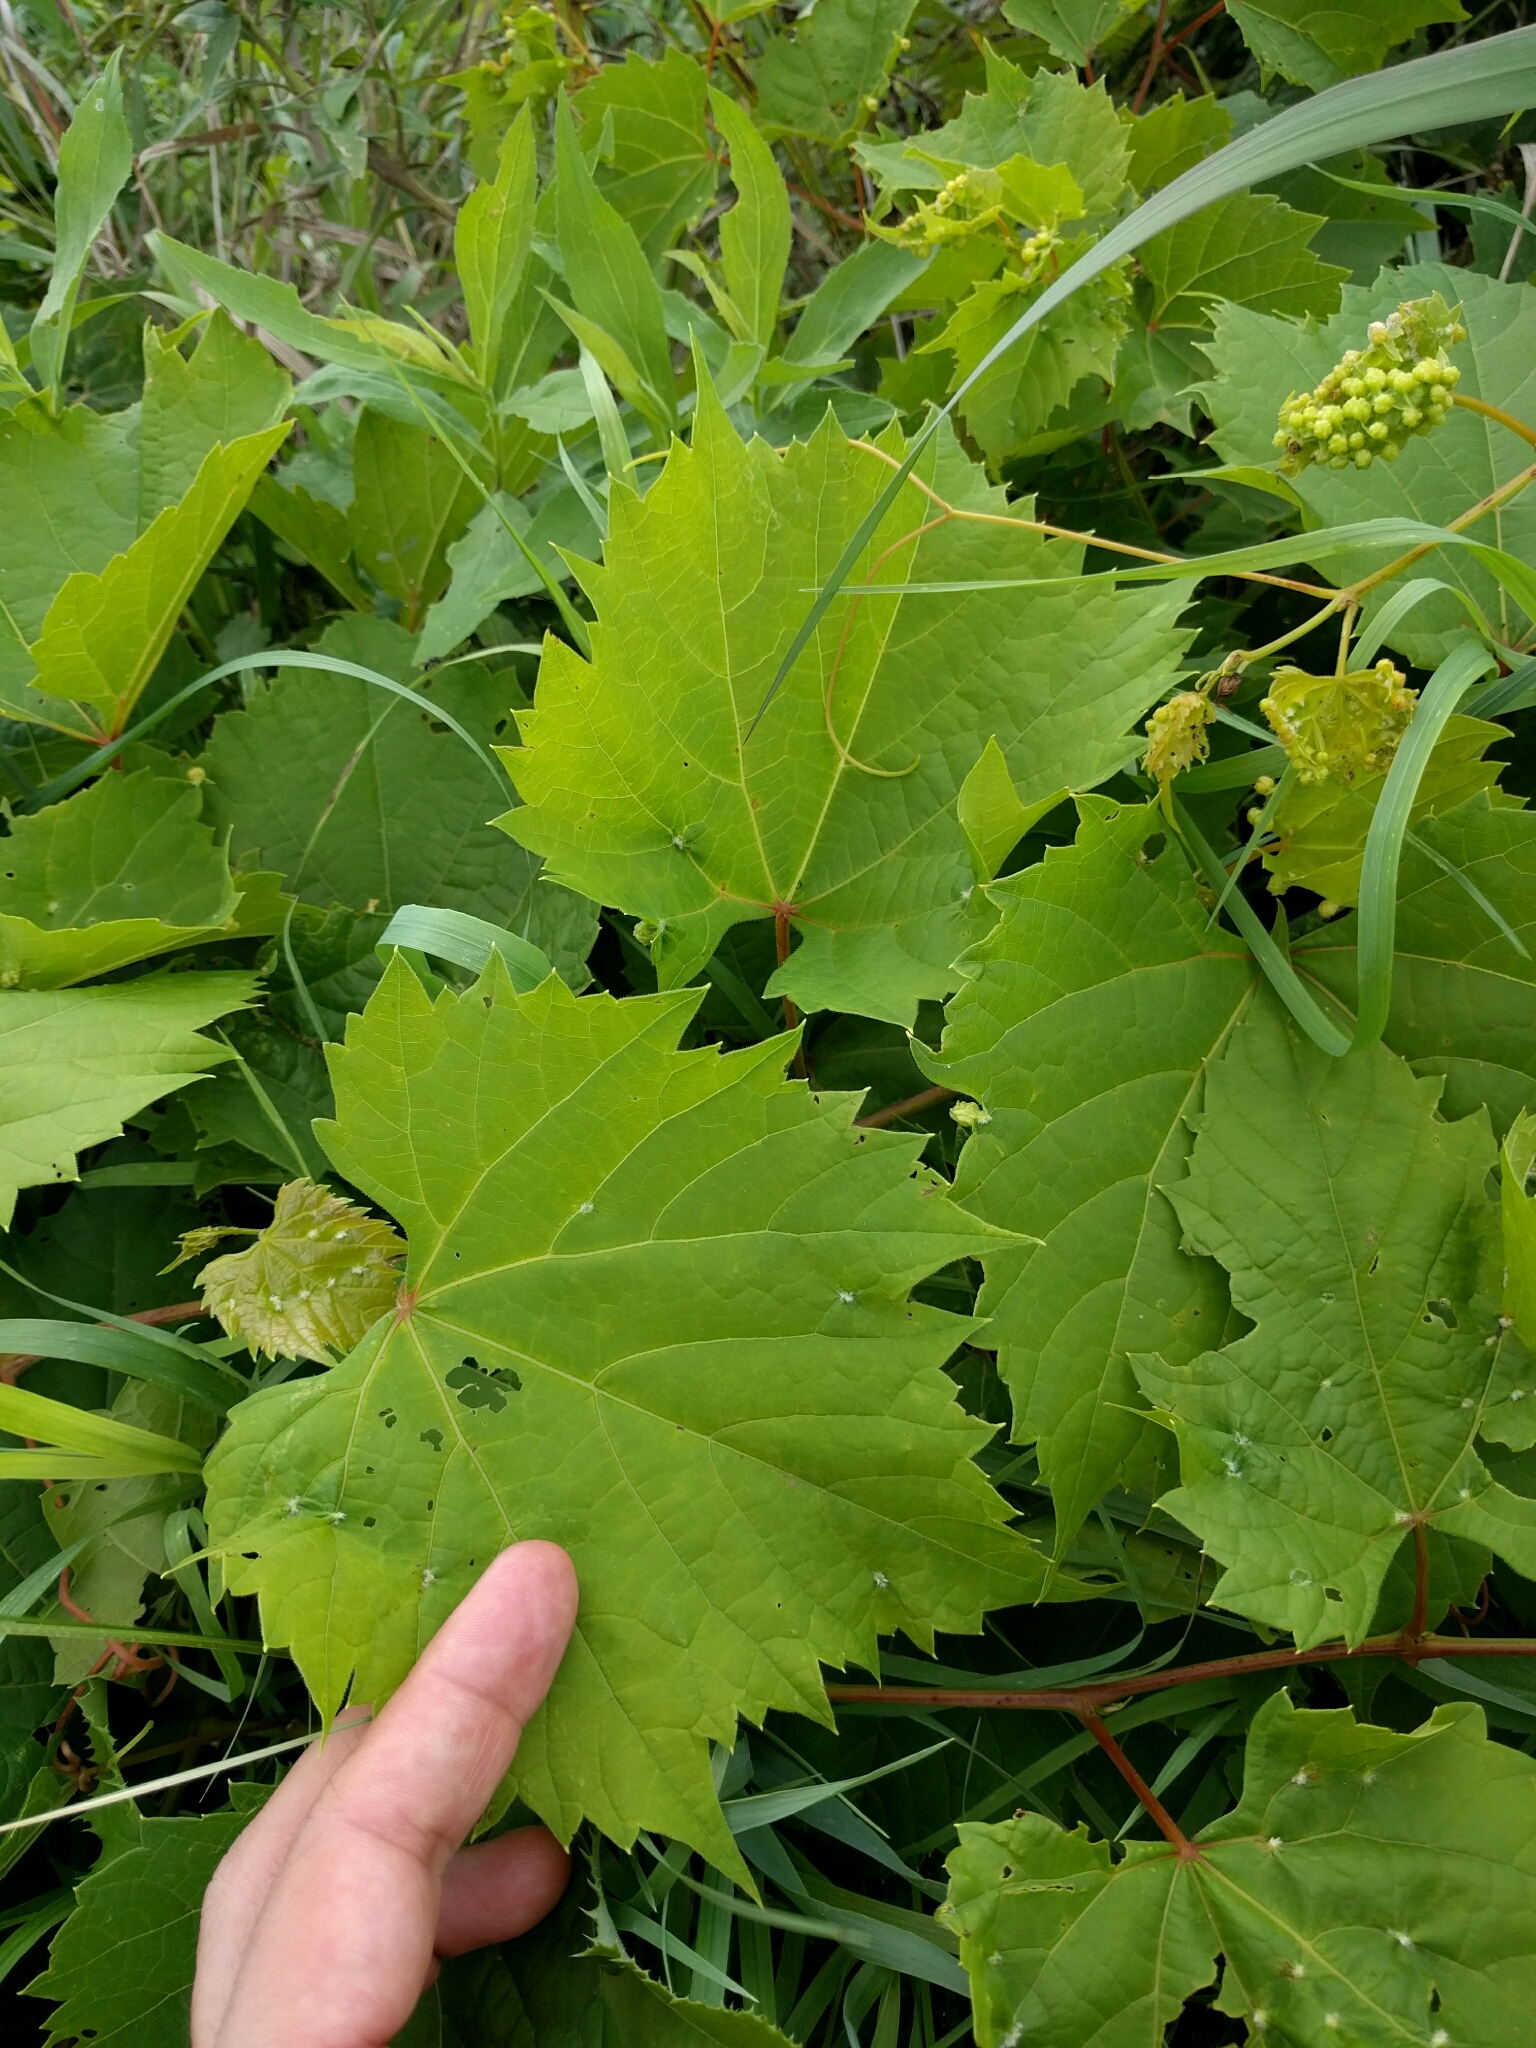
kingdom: Plantae
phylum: Tracheophyta
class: Magnoliopsida
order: Vitales
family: Vitaceae
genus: Vitis
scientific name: Vitis riparia
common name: Frost grape
